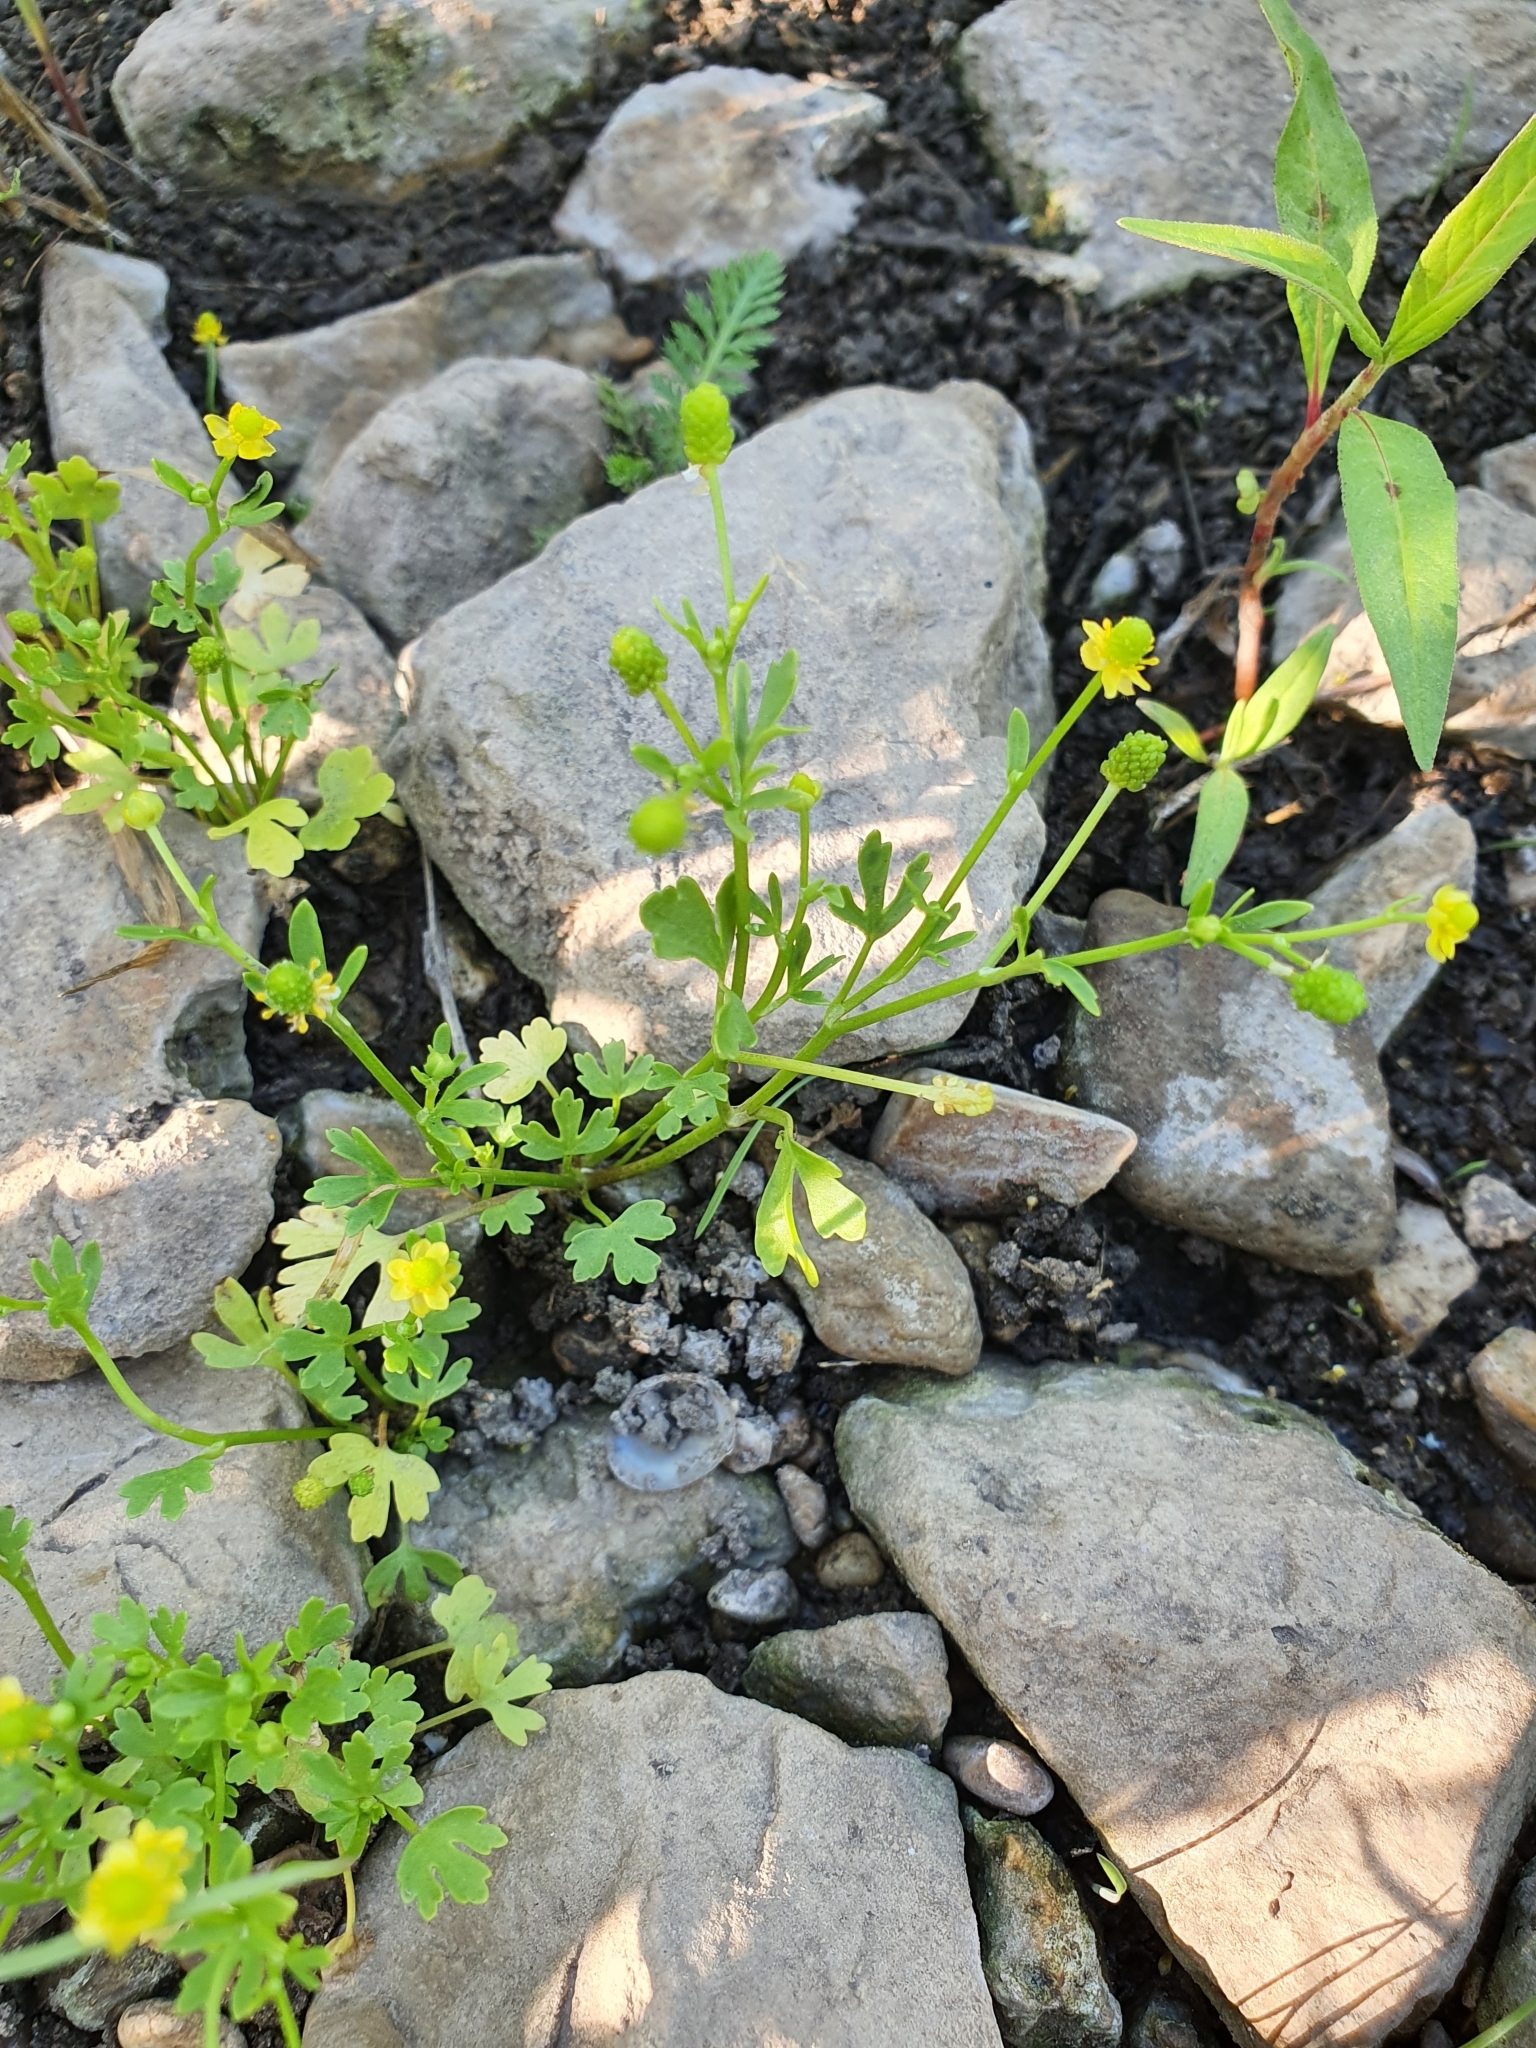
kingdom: Plantae
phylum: Tracheophyta
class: Magnoliopsida
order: Ranunculales
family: Ranunculaceae
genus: Ranunculus
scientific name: Ranunculus sceleratus
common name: Celery-leaved buttercup
